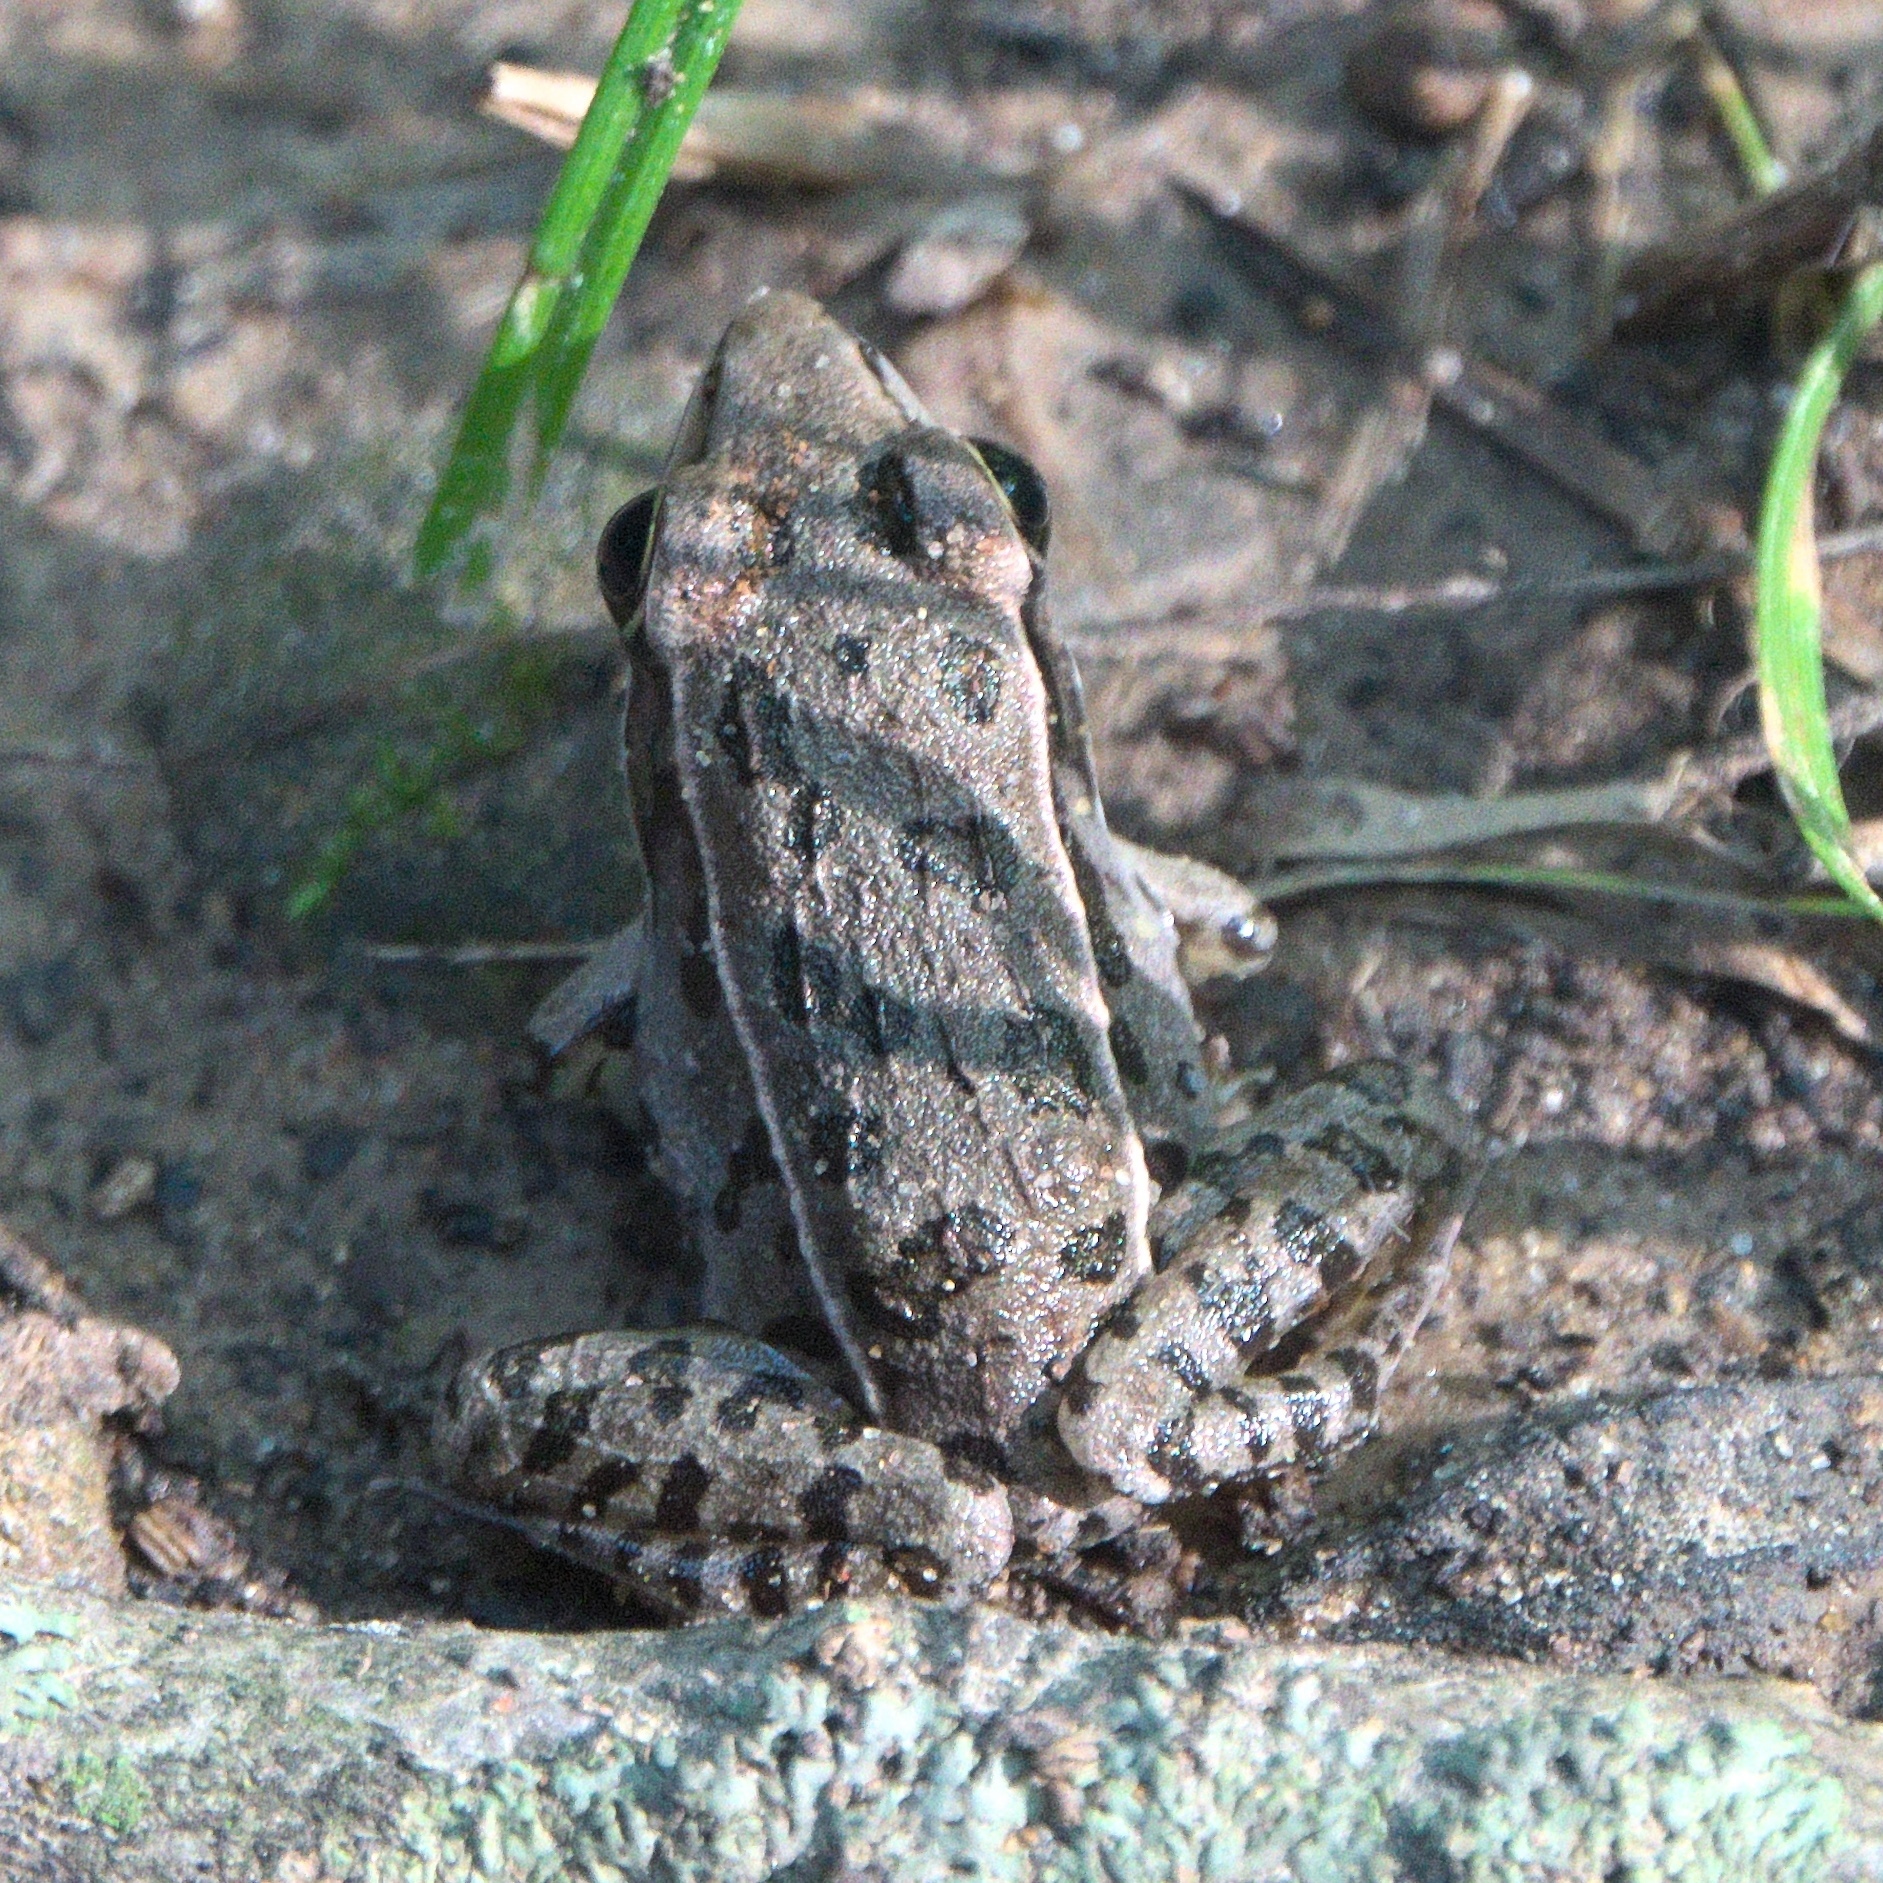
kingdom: Animalia
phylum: Chordata
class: Amphibia
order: Anura
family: Ranidae
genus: Lithobates
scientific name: Lithobates sphenocephalus
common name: Southern leopard frog
